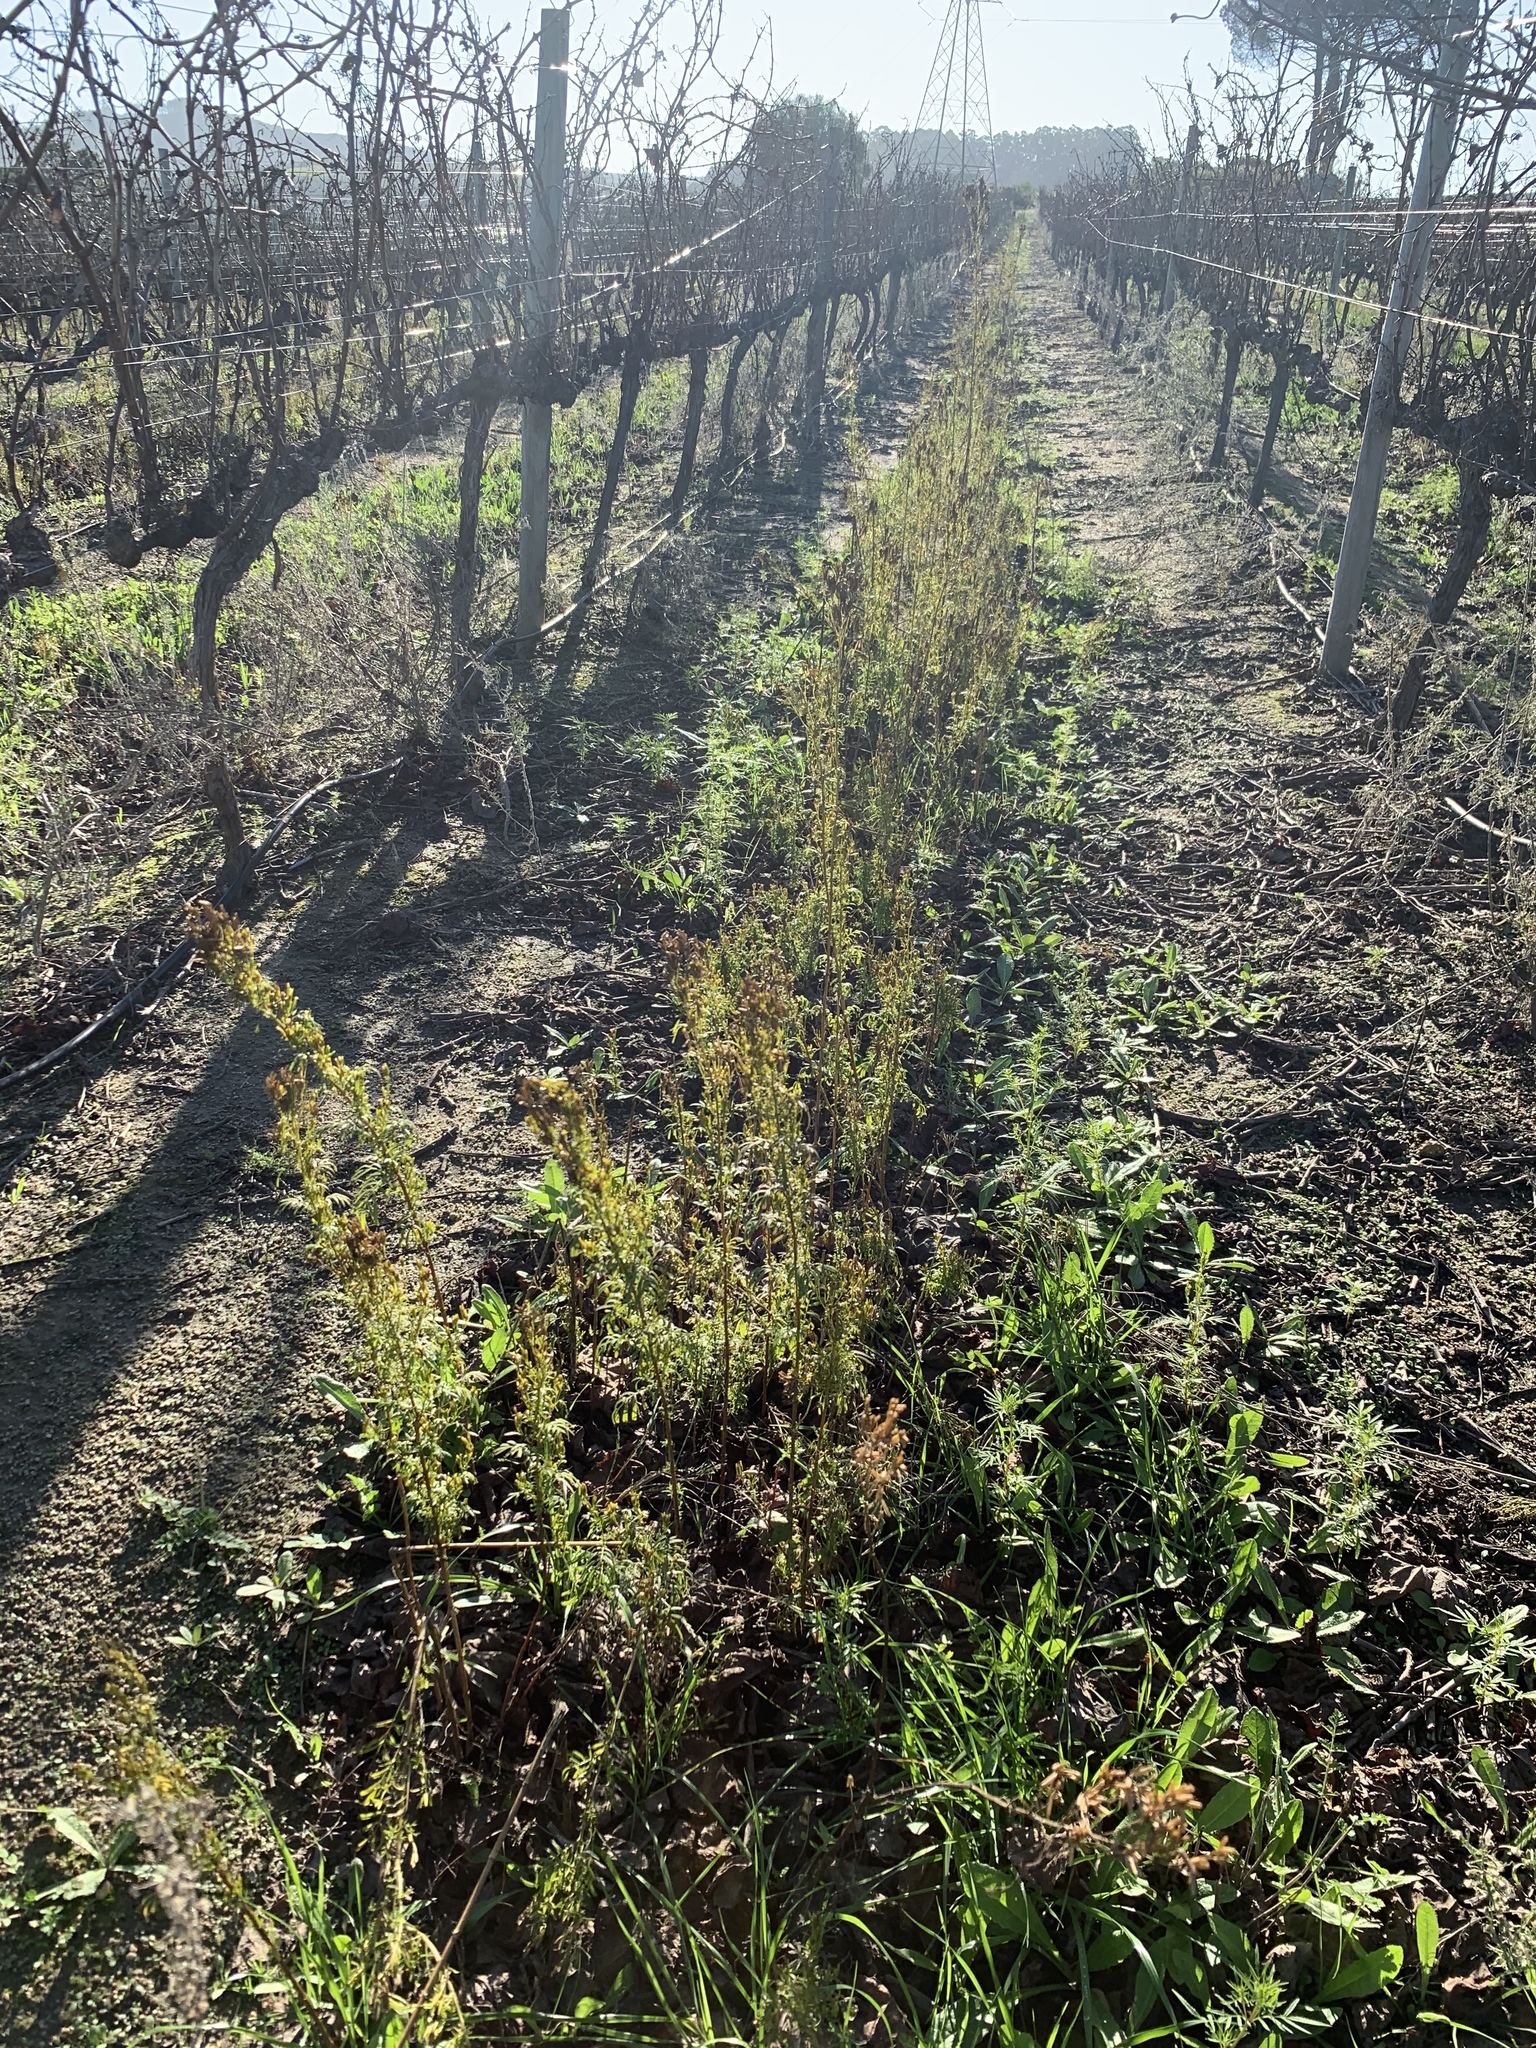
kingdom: Plantae
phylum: Tracheophyta
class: Magnoliopsida
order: Asterales
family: Asteraceae
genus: Tagetes
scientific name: Tagetes minuta
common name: Muster john henry
